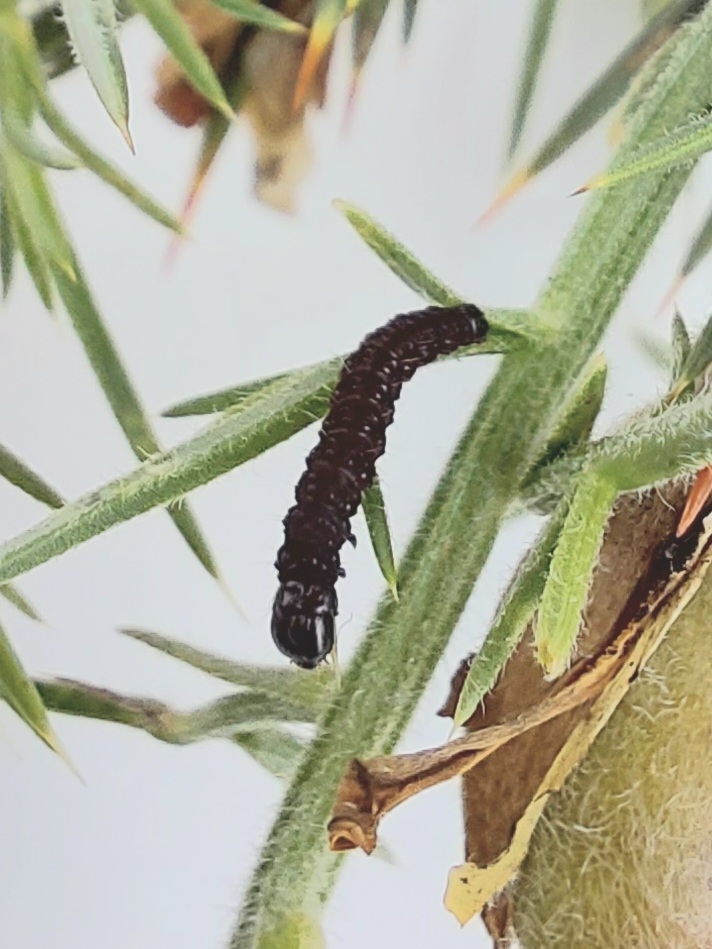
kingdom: Animalia
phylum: Arthropoda
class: Insecta
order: Lepidoptera
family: Depressariidae
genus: Agonopterix
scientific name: Agonopterix
